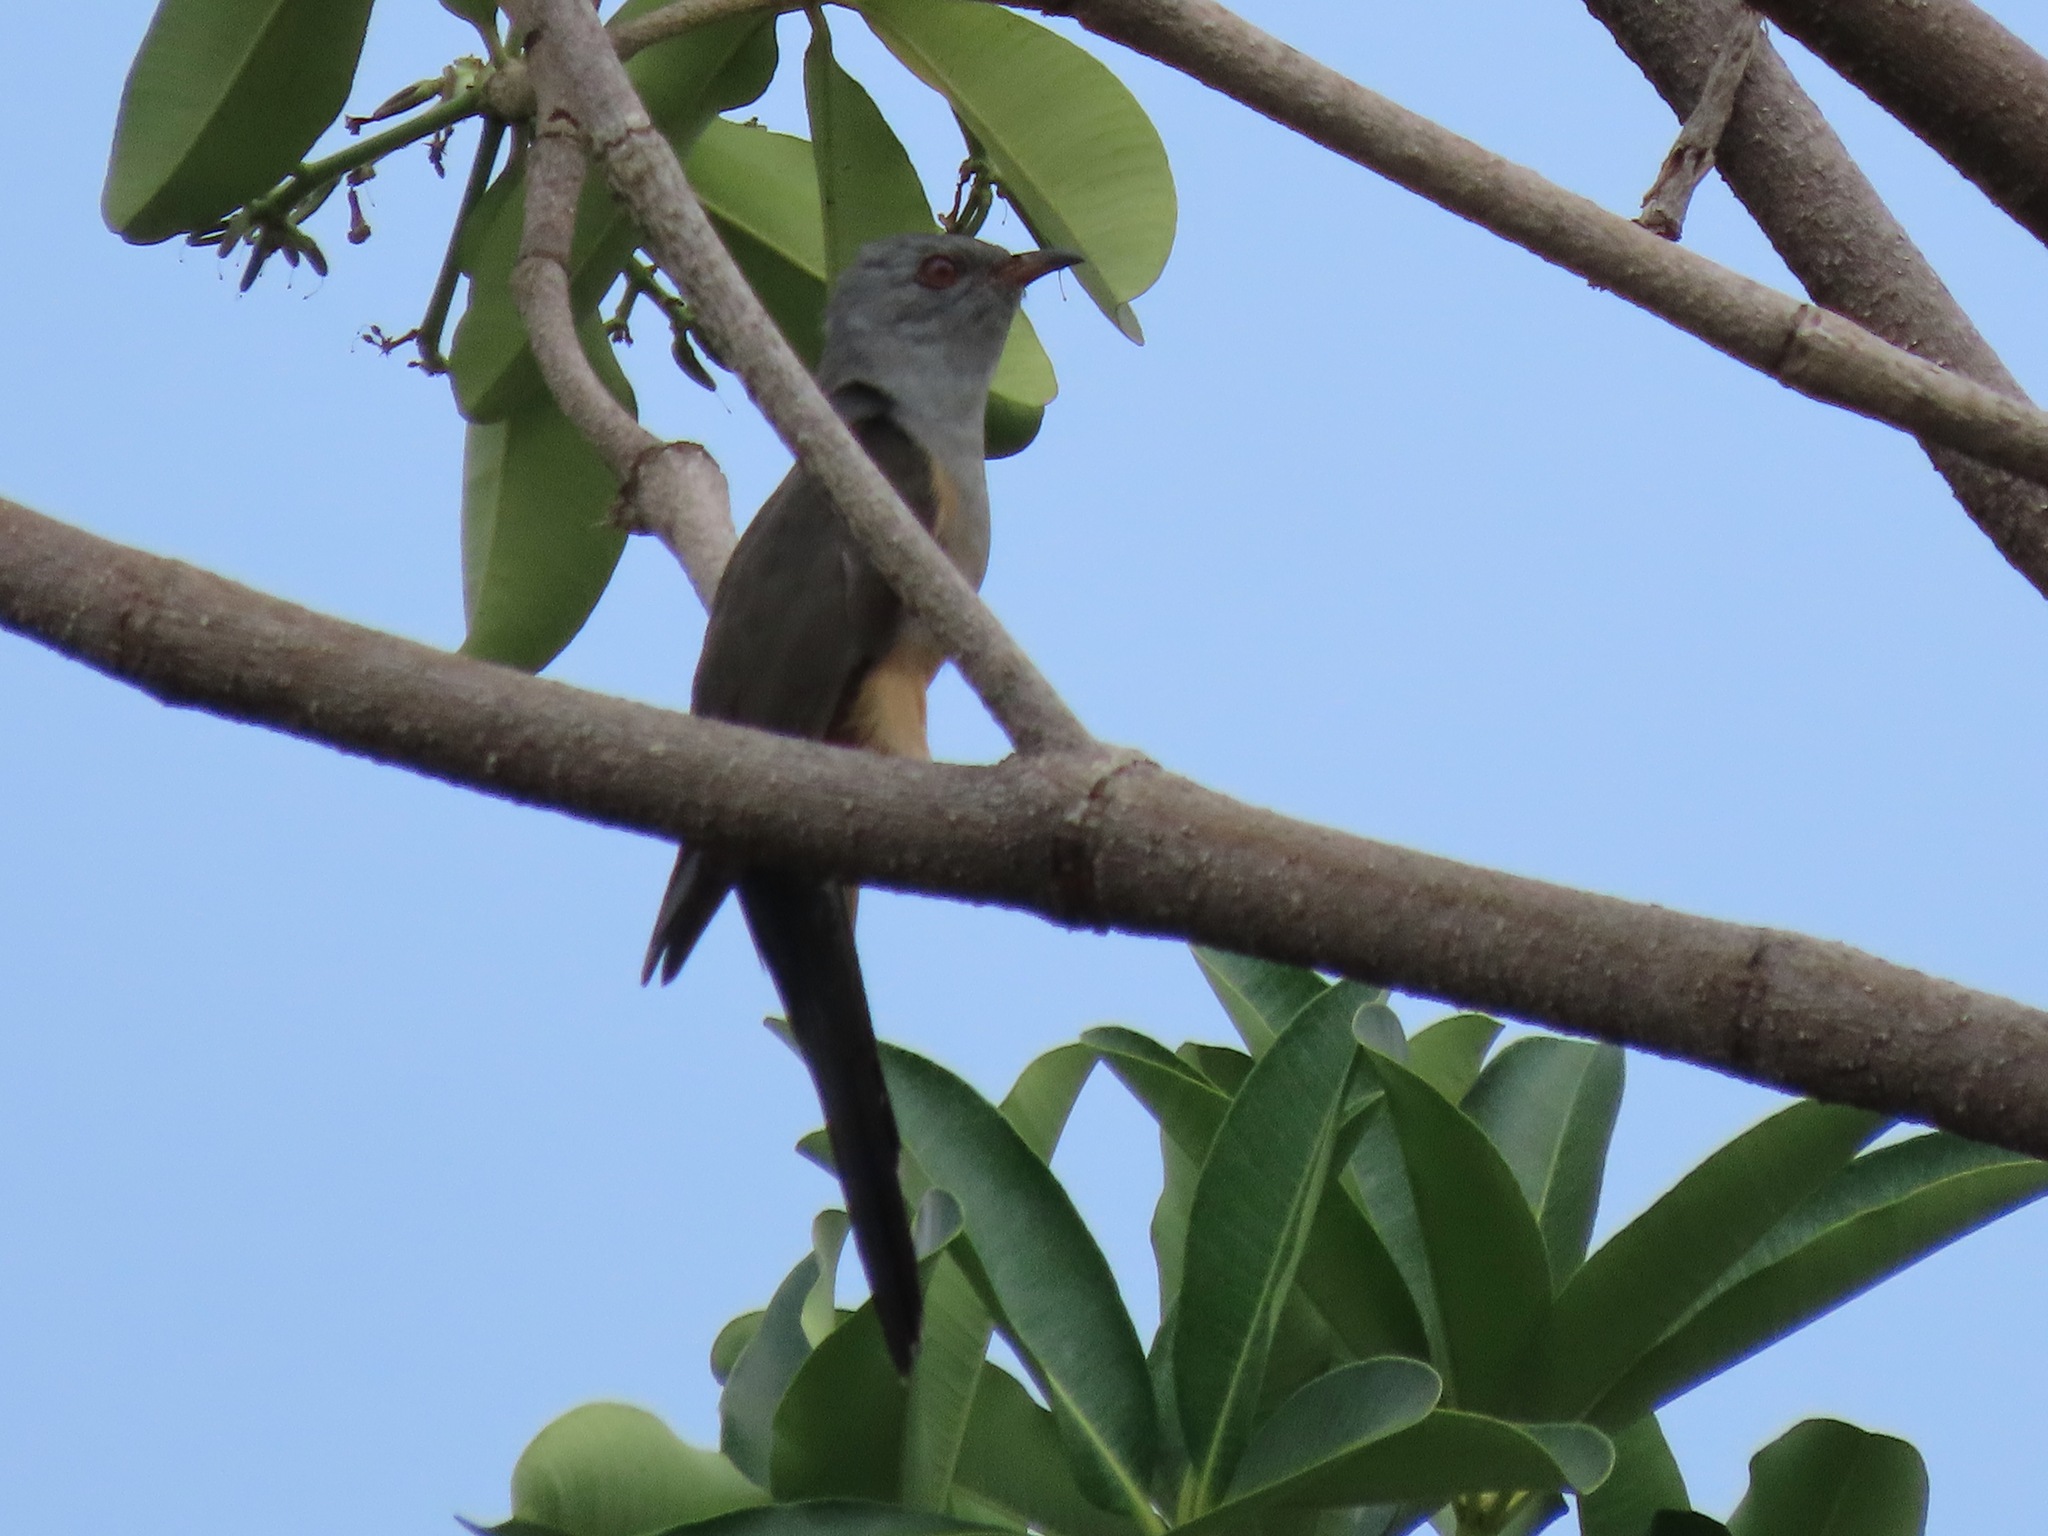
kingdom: Animalia
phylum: Chordata
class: Aves
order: Cuculiformes
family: Cuculidae
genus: Cacomantis
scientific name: Cacomantis merulinus
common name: Plaintive cuckoo
